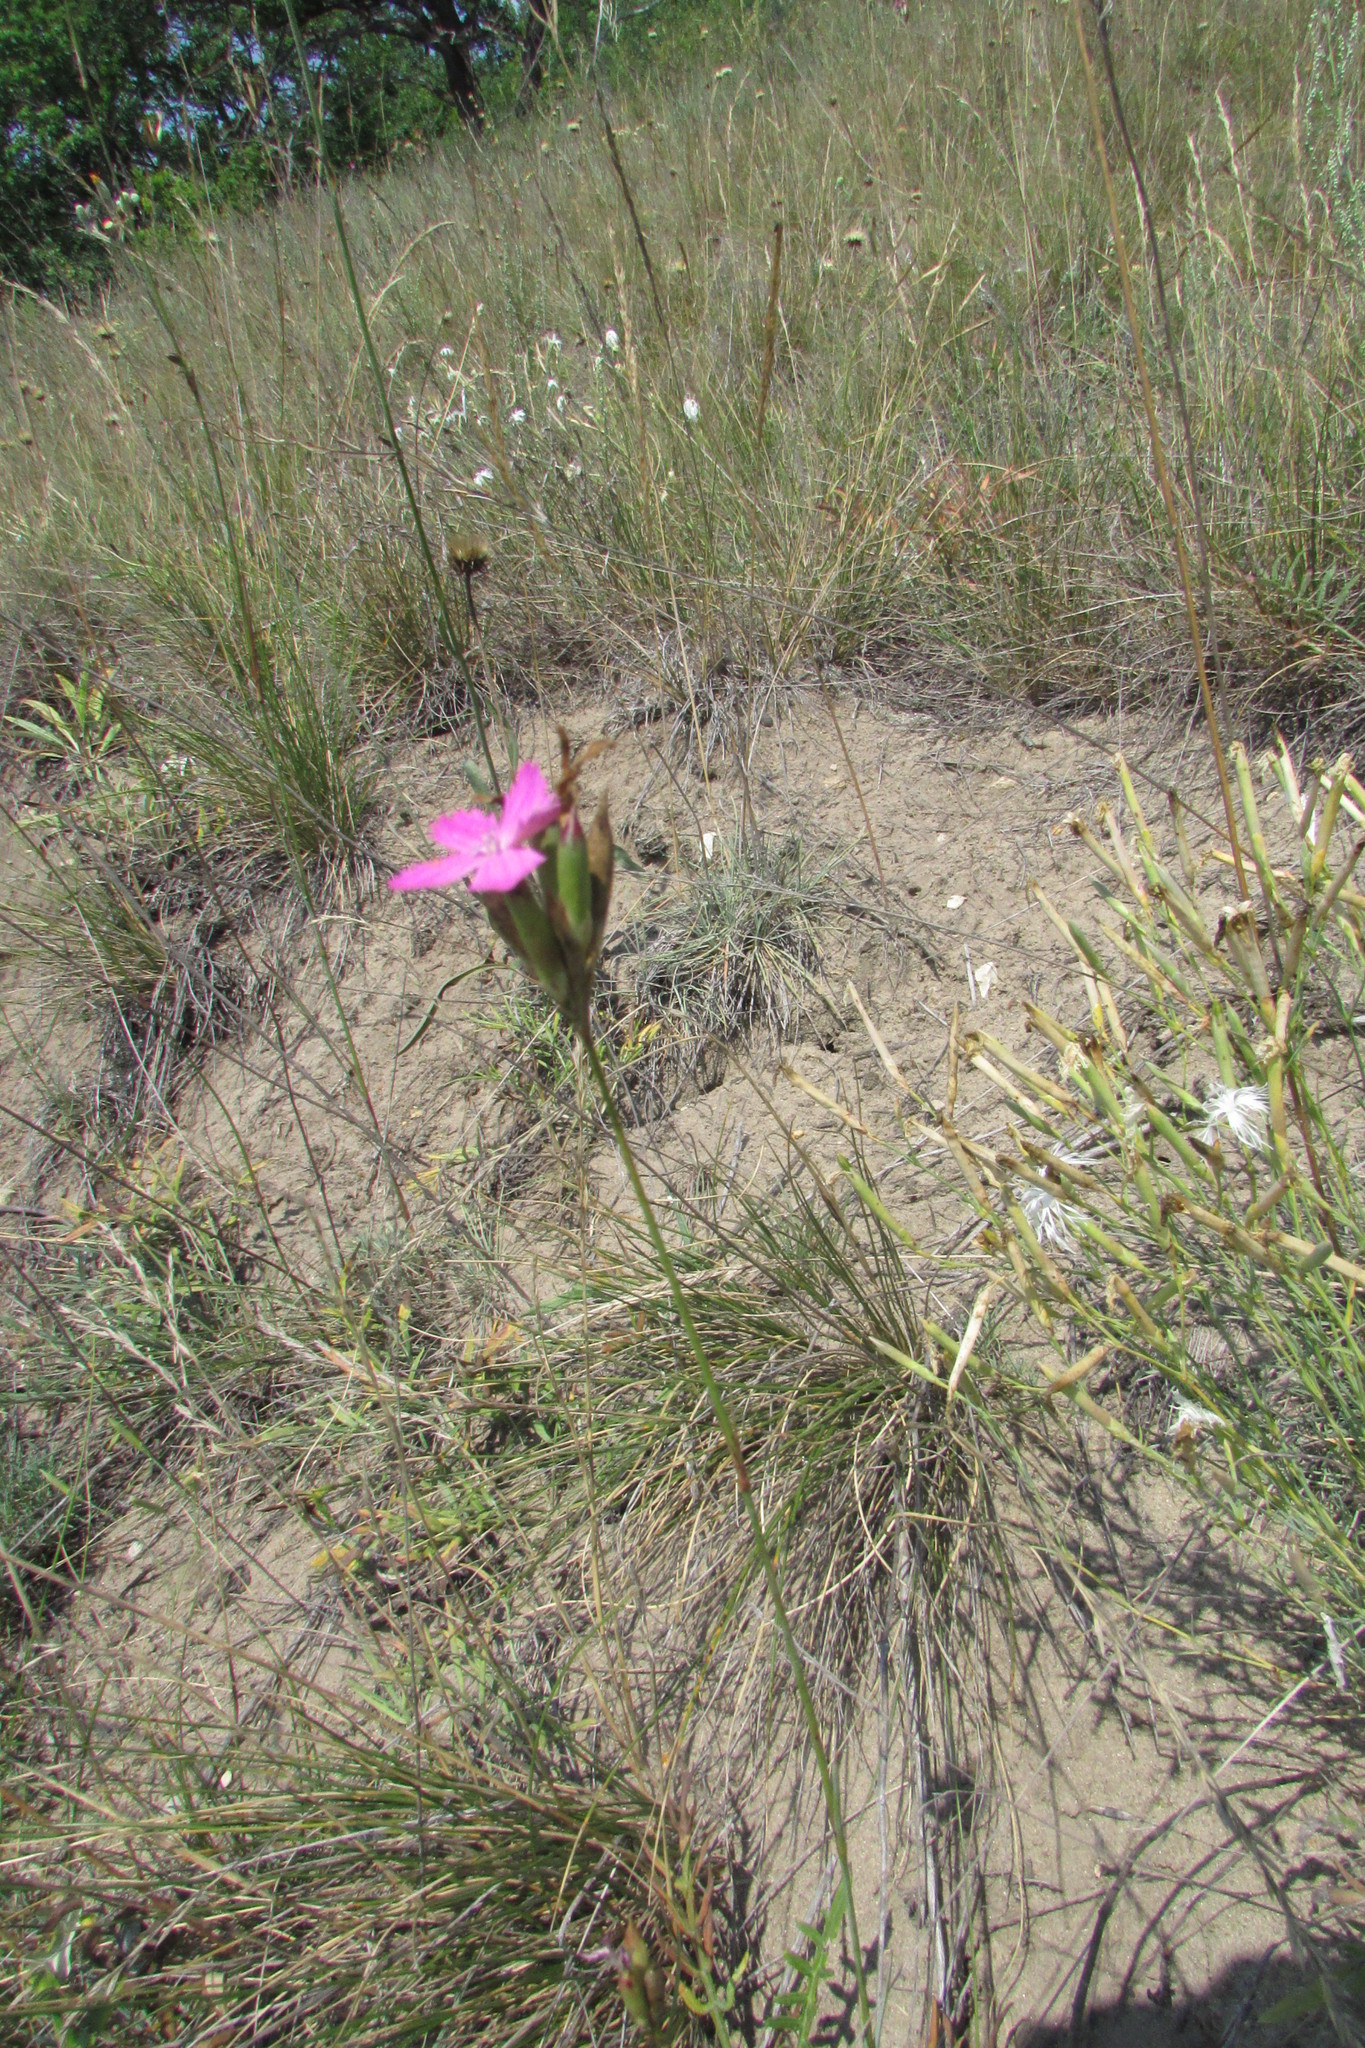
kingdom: Plantae
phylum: Tracheophyta
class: Magnoliopsida
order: Caryophyllales
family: Caryophyllaceae
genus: Dianthus
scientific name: Dianthus borbasii
